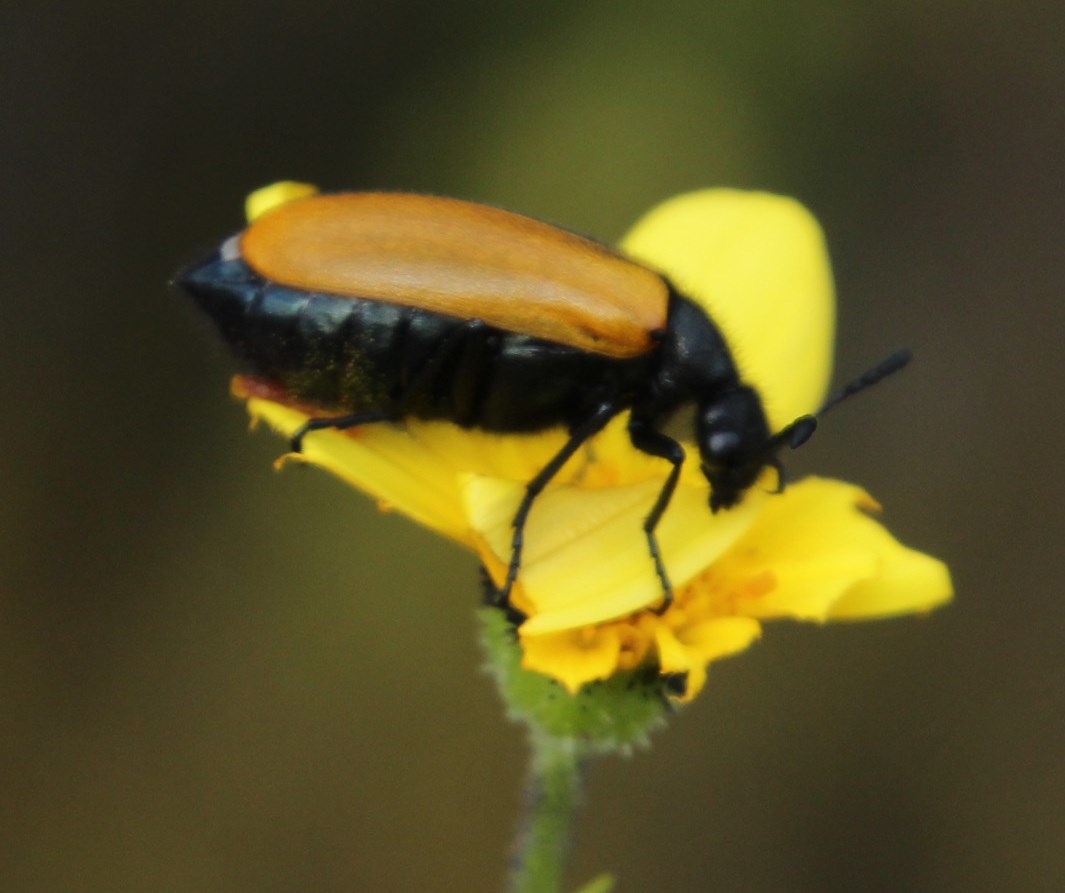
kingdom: Plantae
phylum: Tracheophyta
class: Magnoliopsida
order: Asterales
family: Asteraceae
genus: Osteospermum
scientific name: Osteospermum polygaloides
